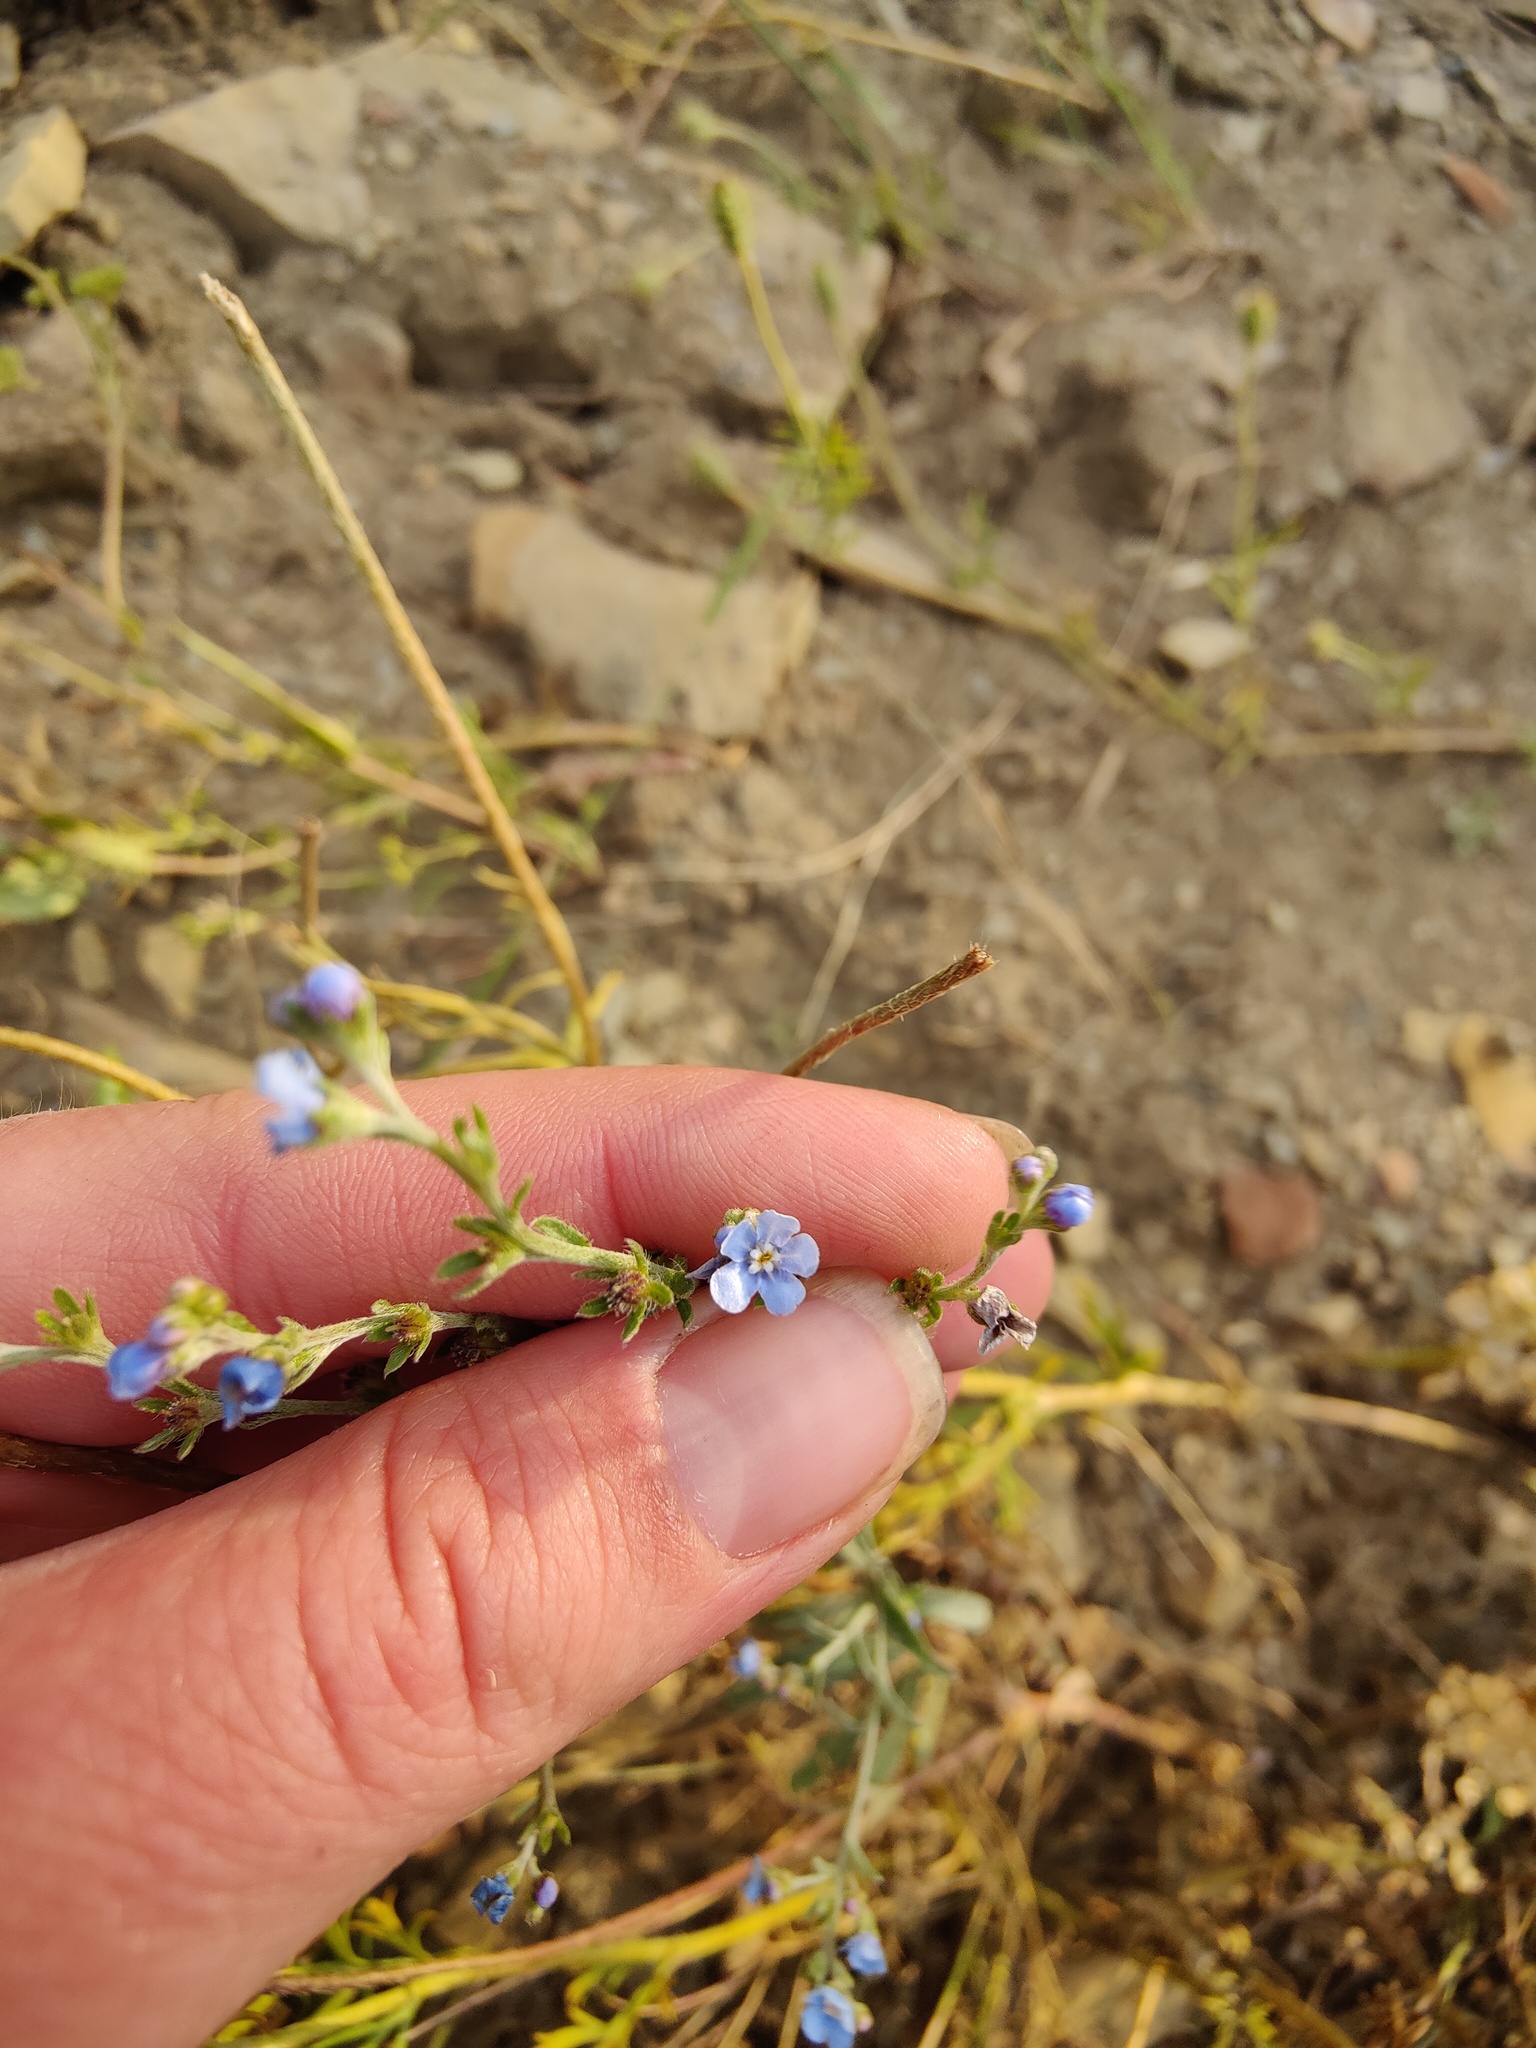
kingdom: Plantae
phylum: Tracheophyta
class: Magnoliopsida
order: Boraginales
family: Boraginaceae
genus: Lappula
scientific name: Lappula barbata
